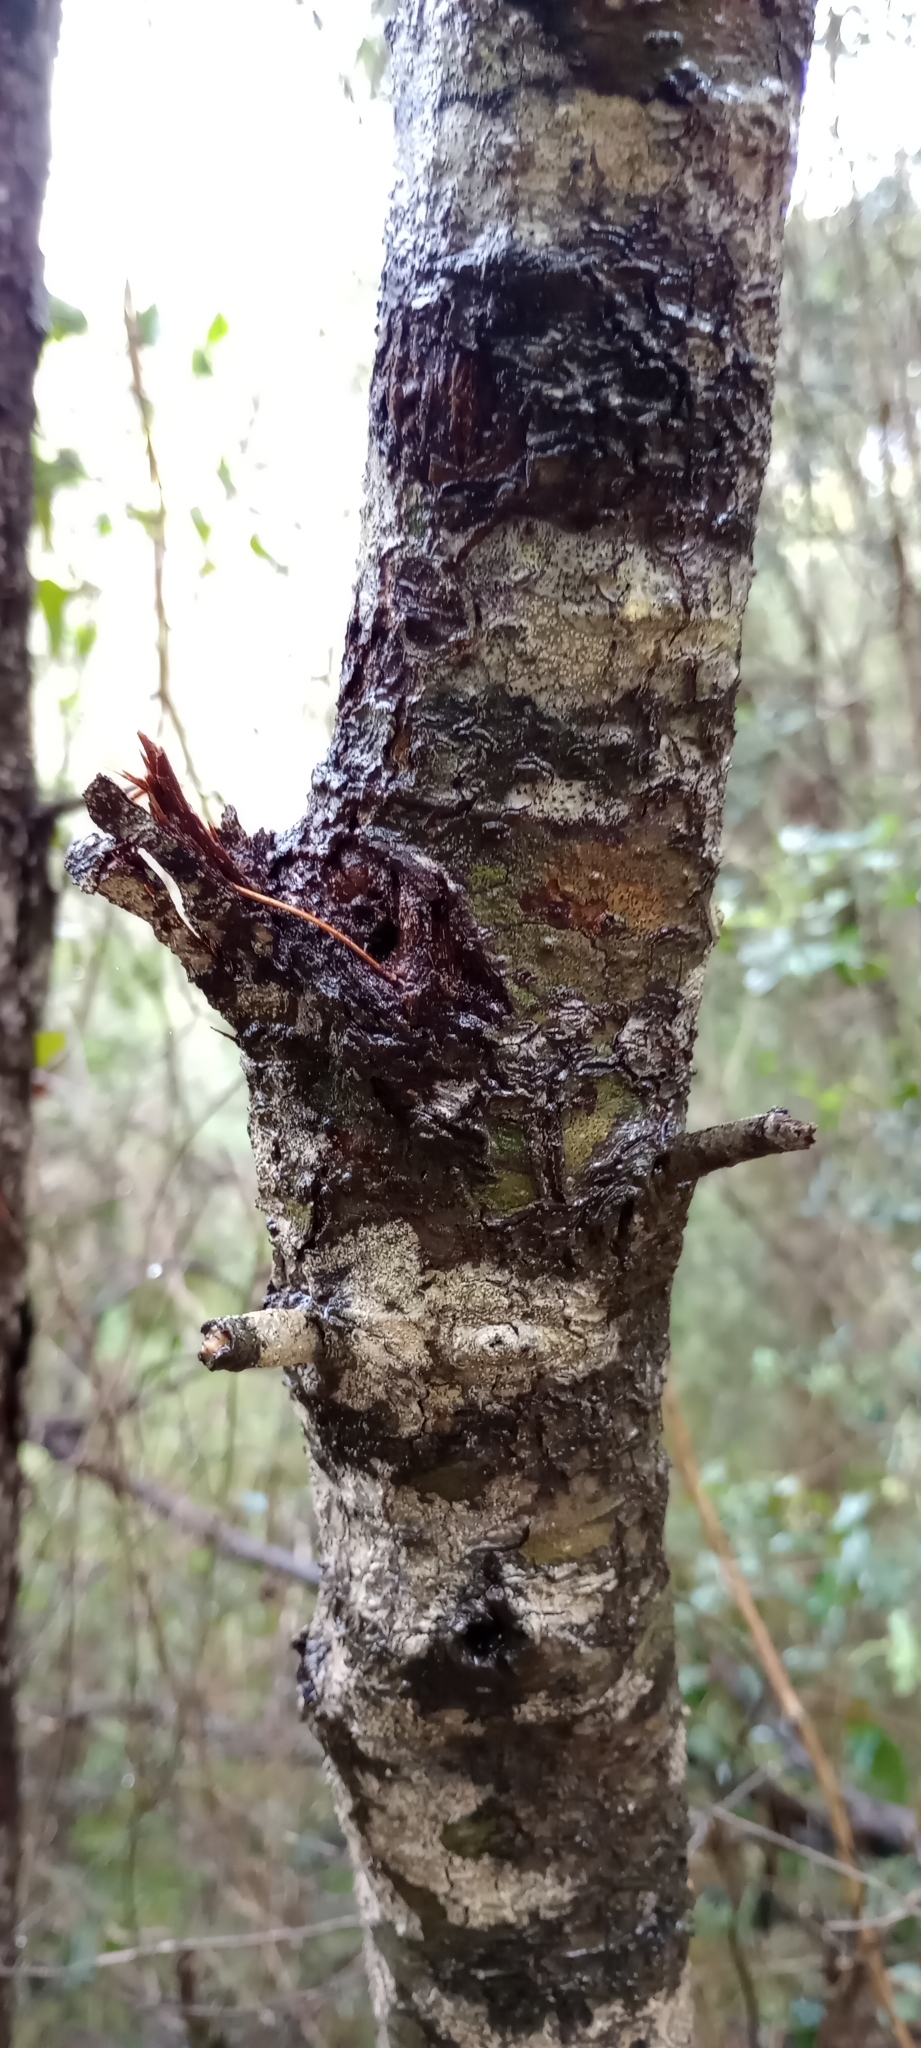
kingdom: Plantae
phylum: Tracheophyta
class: Magnoliopsida
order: Fagales
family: Fagaceae
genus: Quercus
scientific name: Quercus ilex
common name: Evergreen oak
